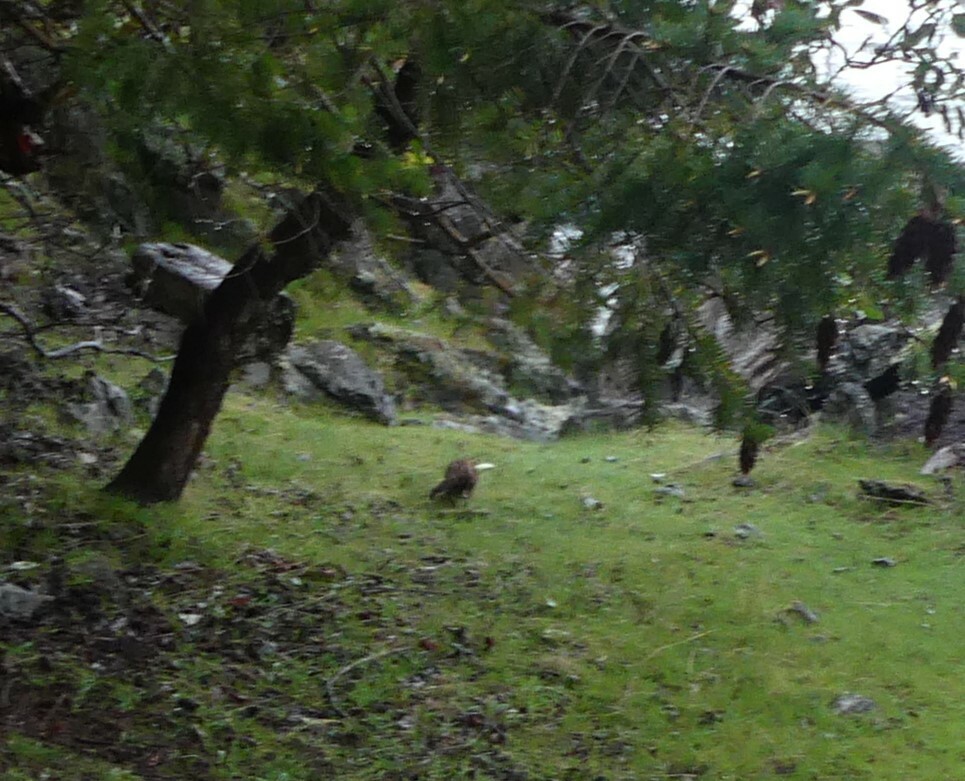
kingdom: Animalia
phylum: Chordata
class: Mammalia
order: Carnivora
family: Mustelidae
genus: Mustela
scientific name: Mustela
